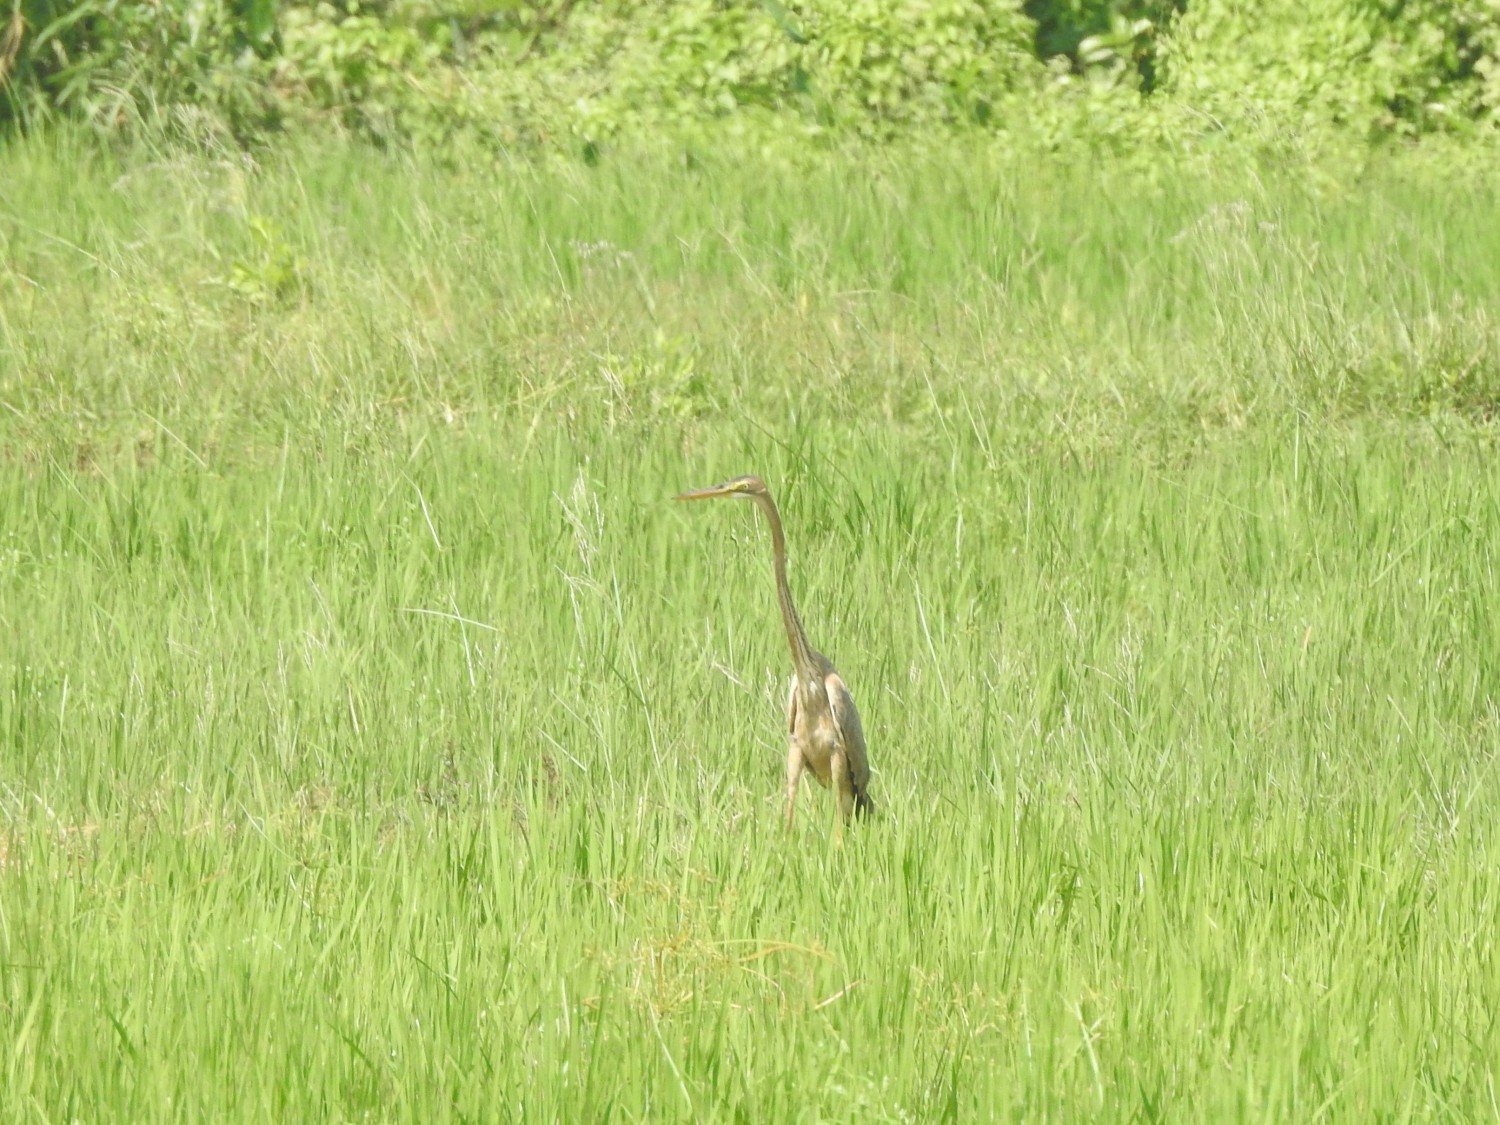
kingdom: Animalia
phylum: Chordata
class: Aves
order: Pelecaniformes
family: Ardeidae
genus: Ardea
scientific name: Ardea purpurea
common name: Purple heron
